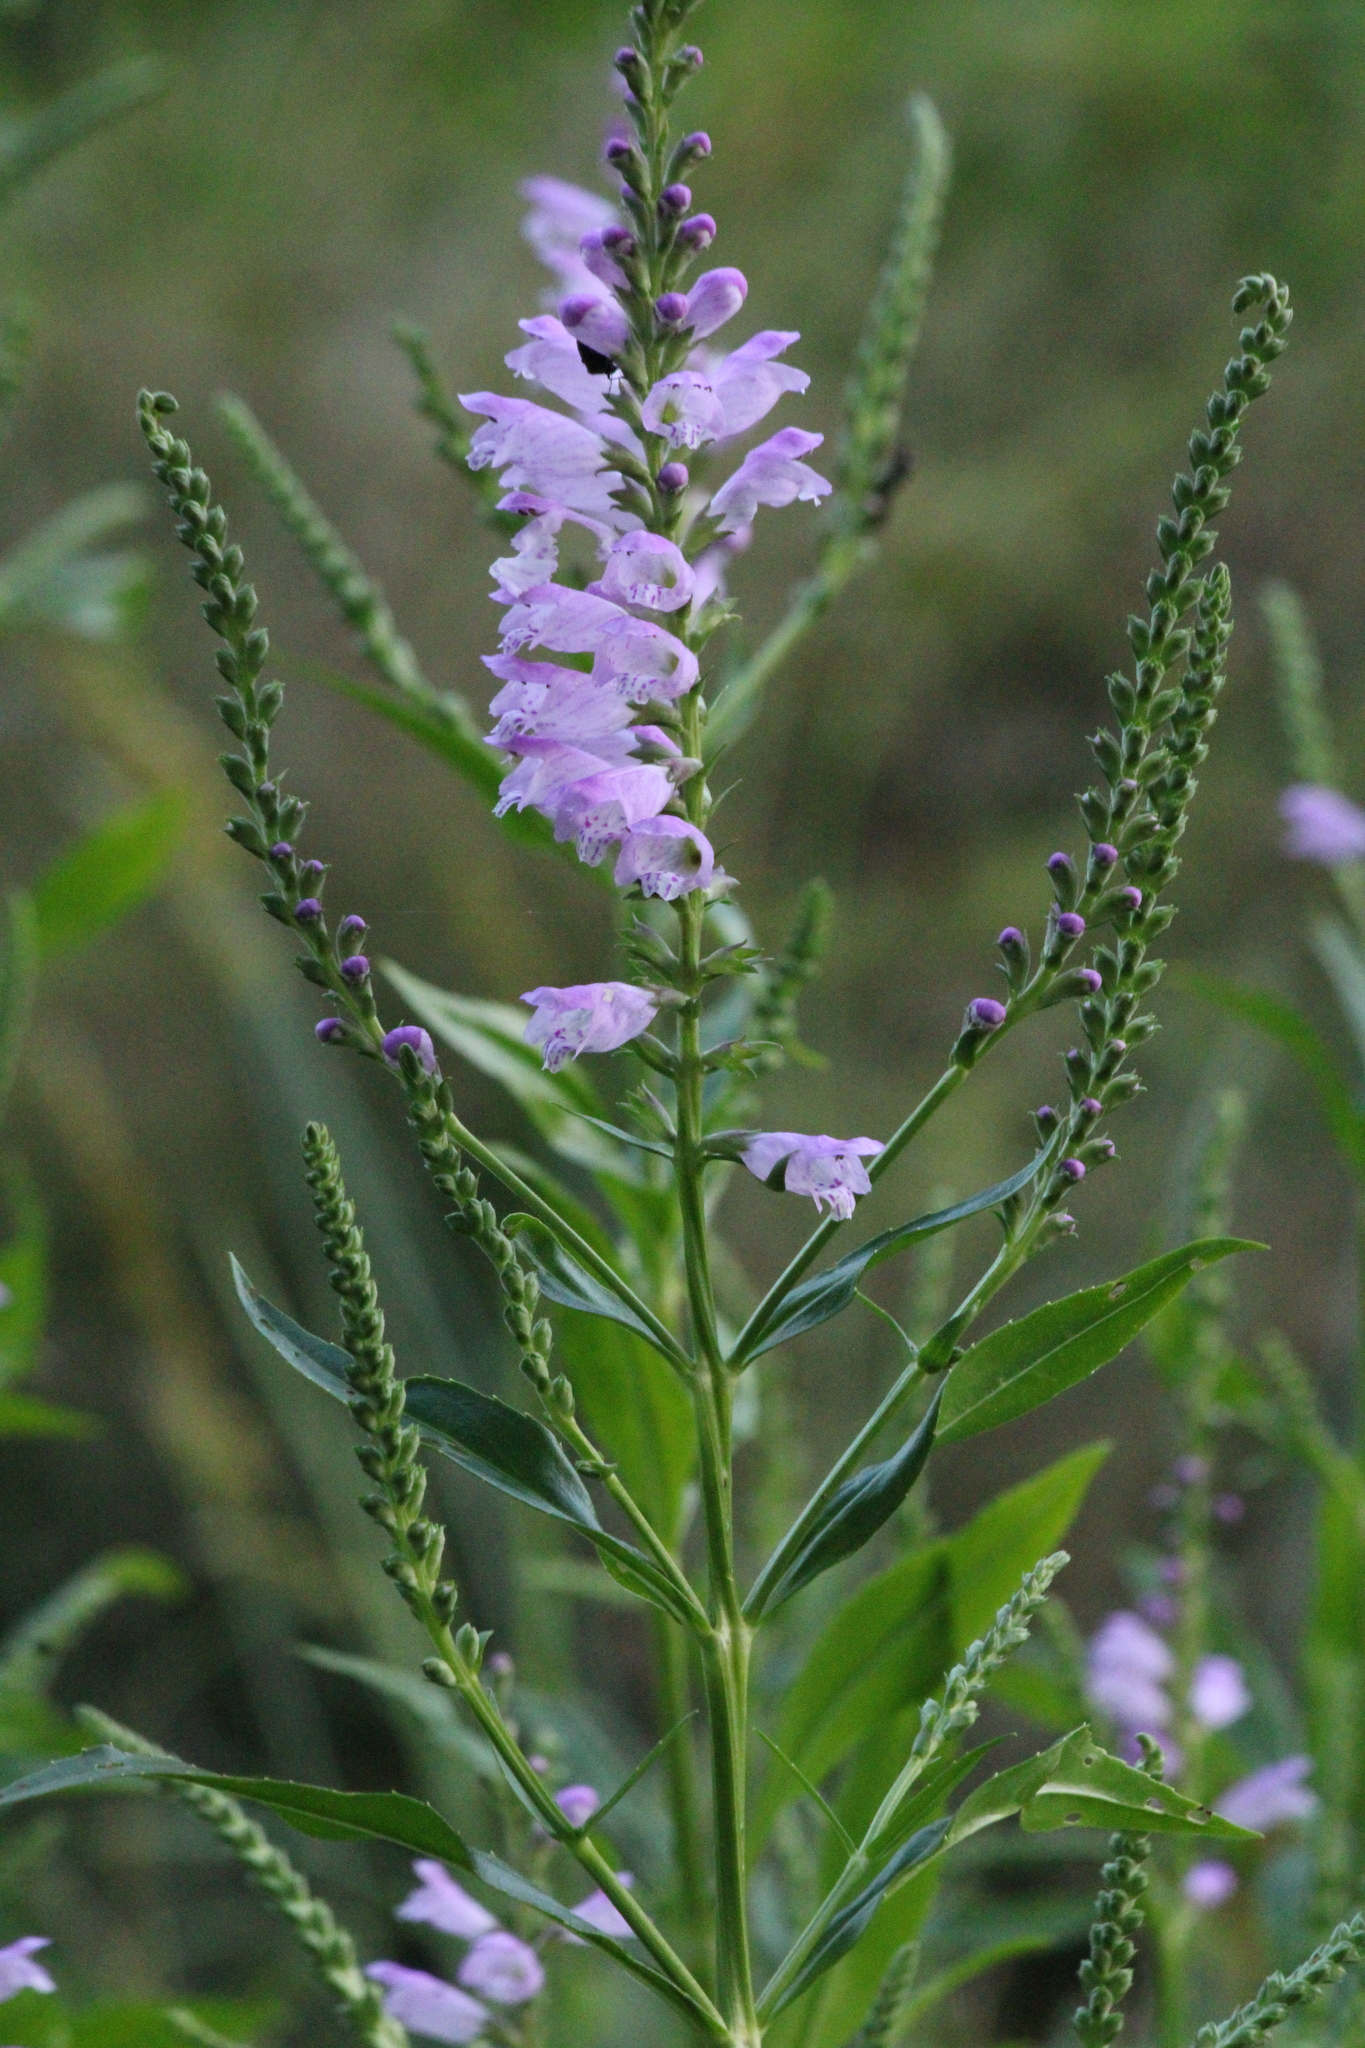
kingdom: Plantae
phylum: Tracheophyta
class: Magnoliopsida
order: Lamiales
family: Lamiaceae
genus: Physostegia
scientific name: Physostegia virginiana
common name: Obedient-plant
